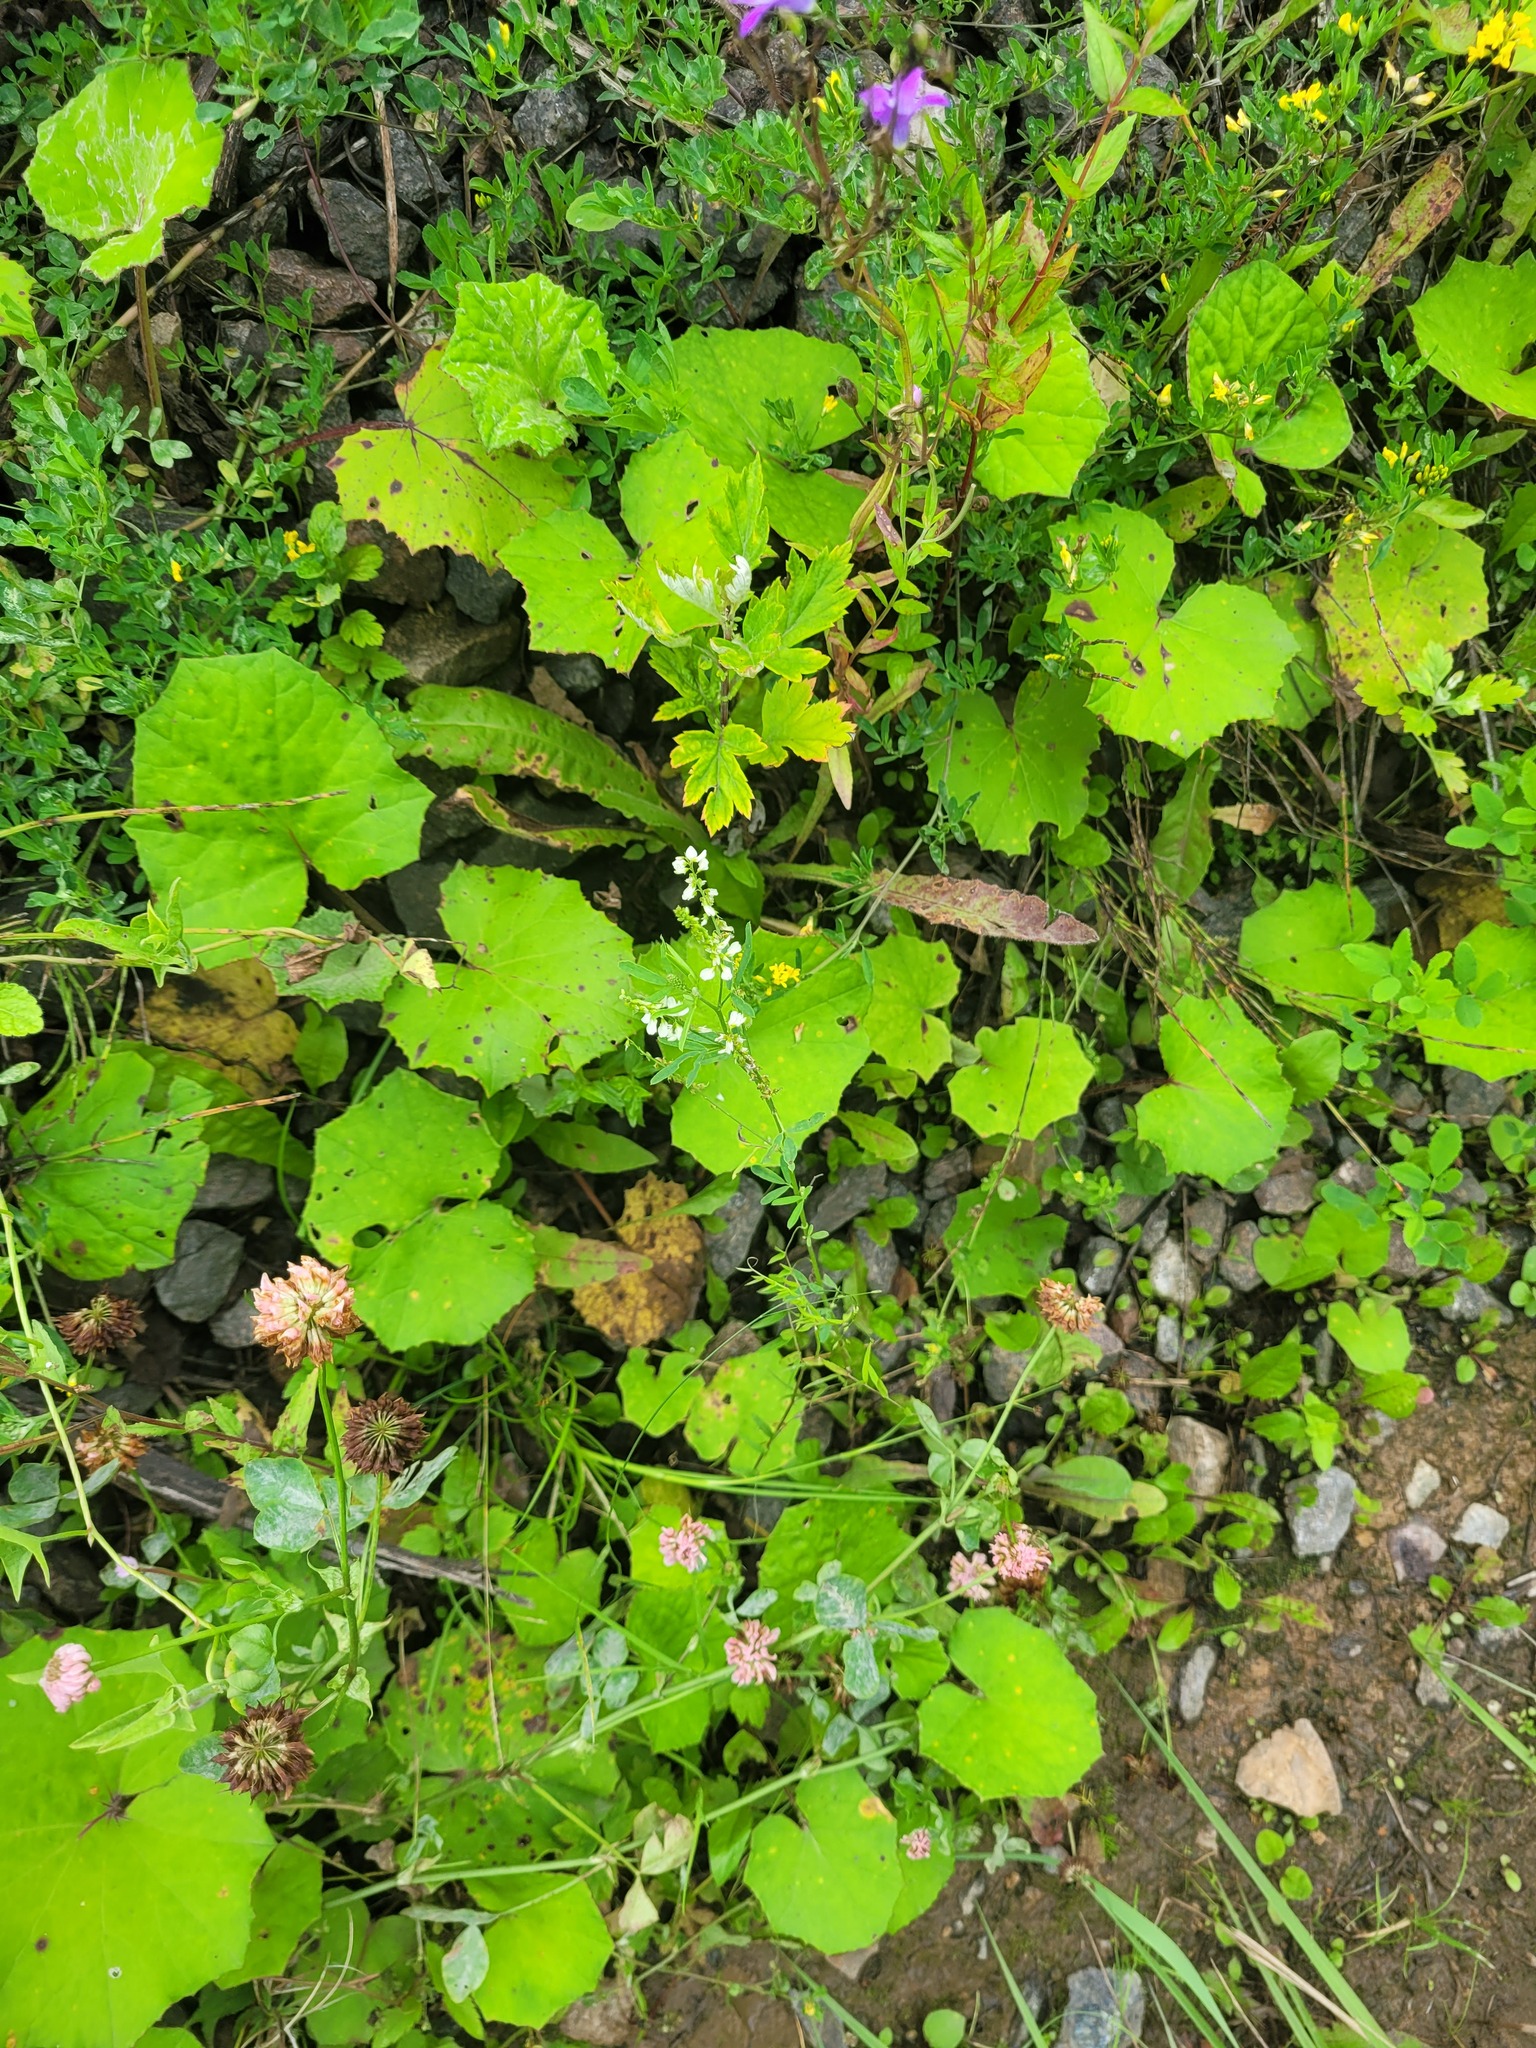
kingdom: Plantae
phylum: Tracheophyta
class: Magnoliopsida
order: Fabales
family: Fabaceae
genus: Melilotus
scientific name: Melilotus albus
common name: White melilot
